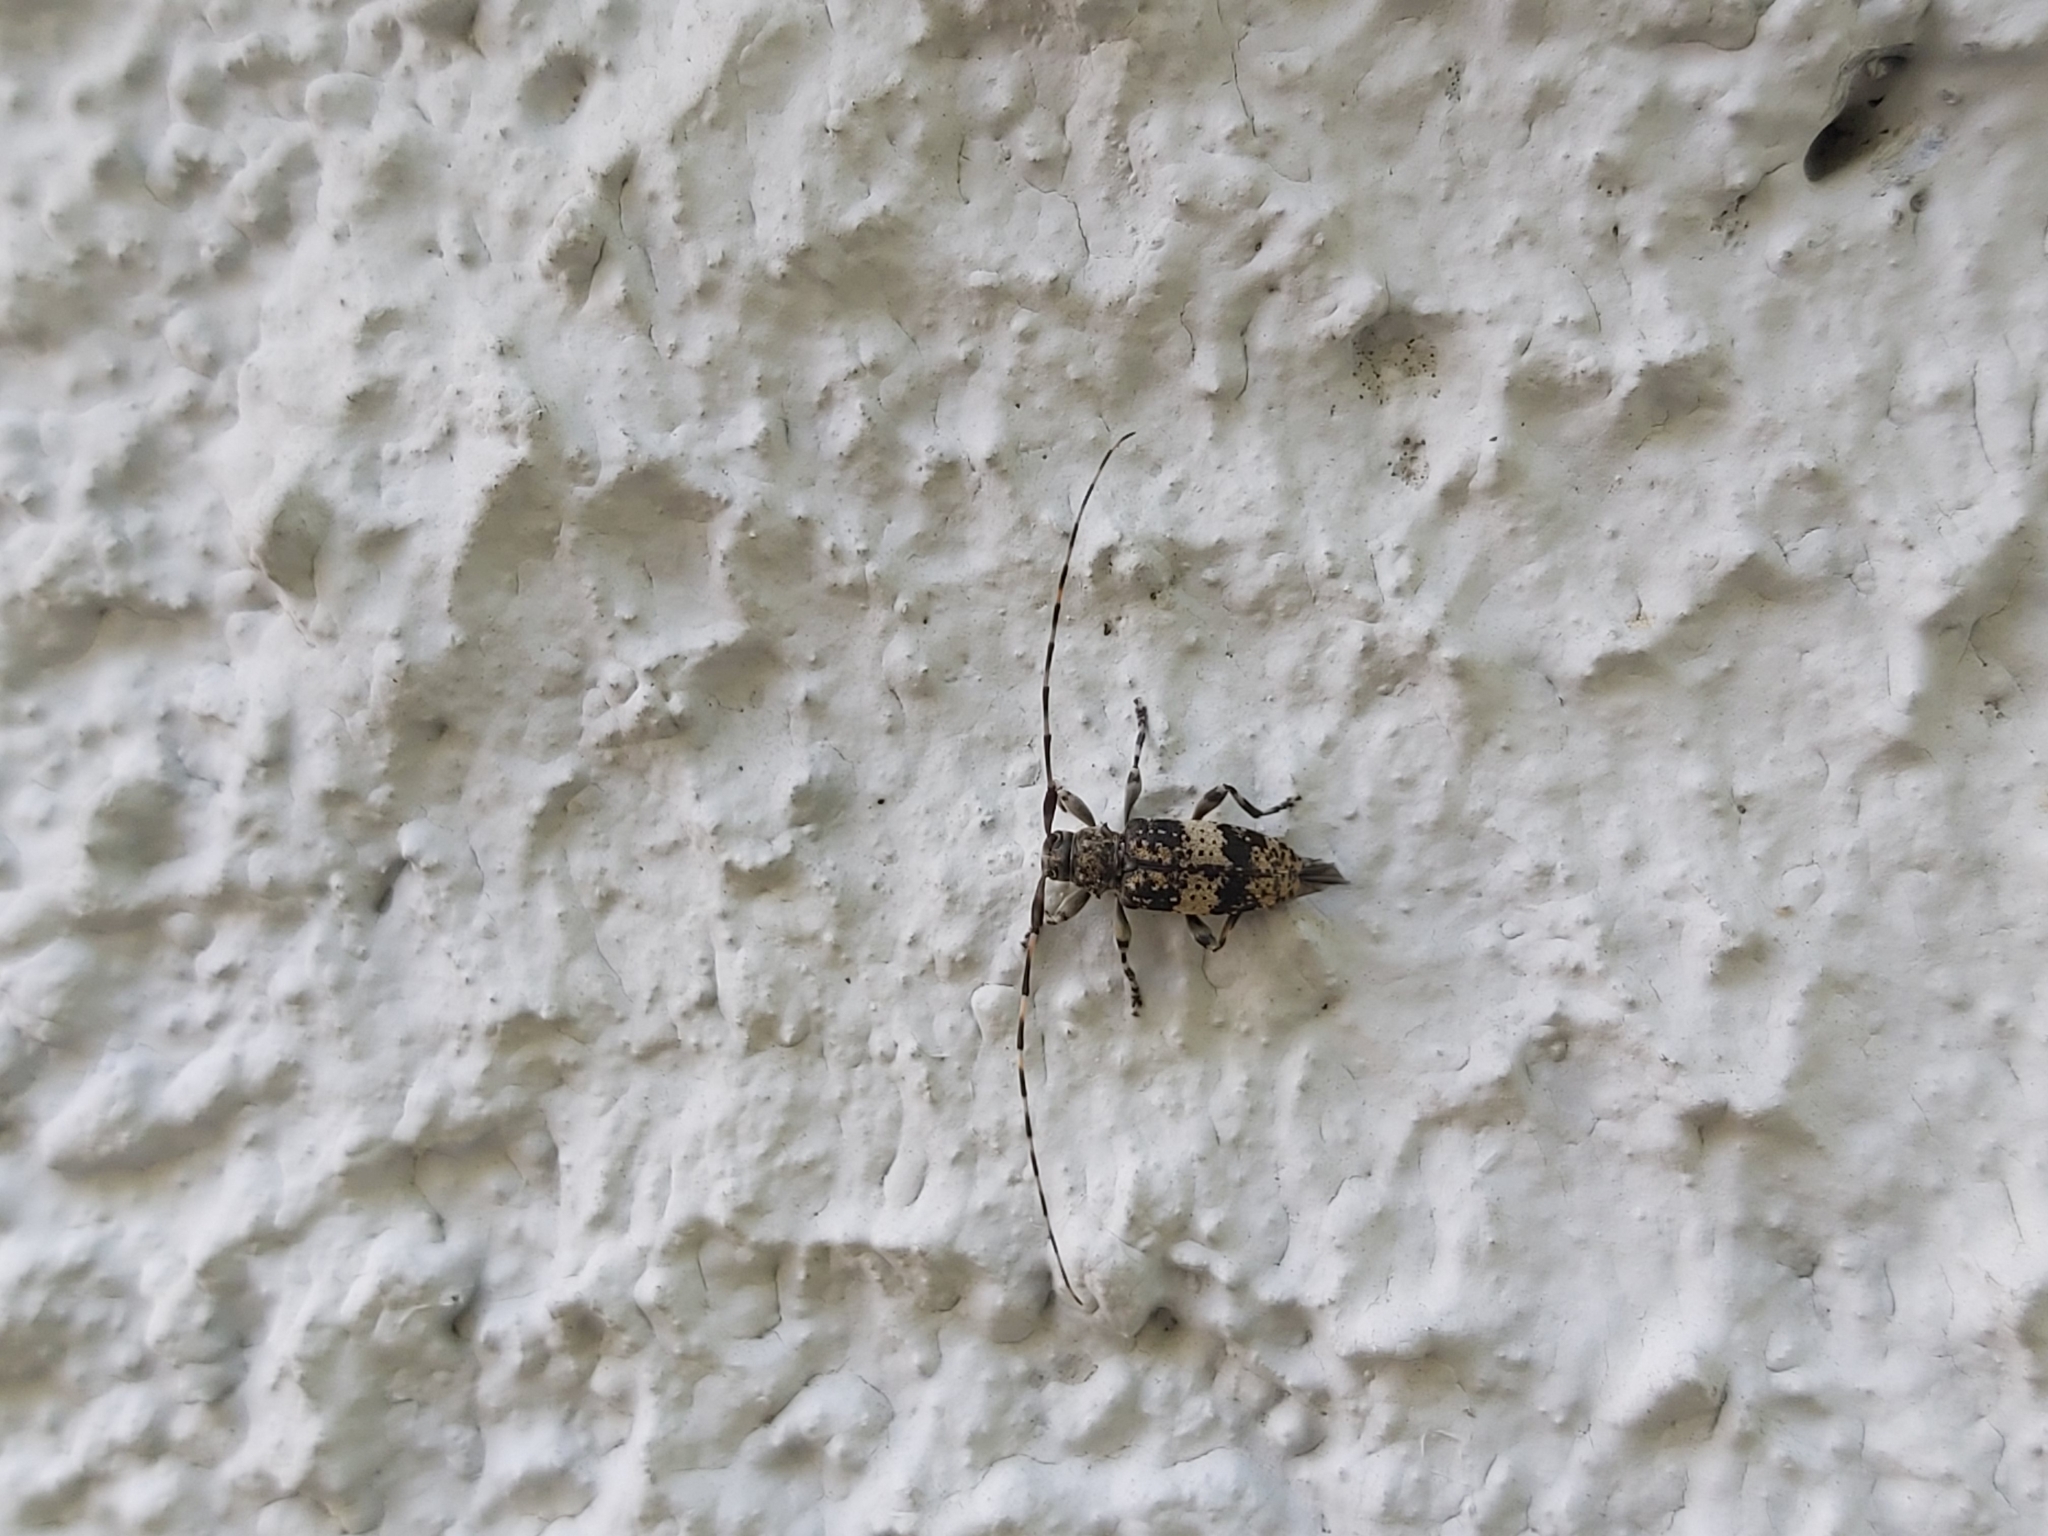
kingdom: Animalia
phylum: Arthropoda
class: Insecta
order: Coleoptera
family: Cerambycidae
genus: Leiopus
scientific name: Leiopus
